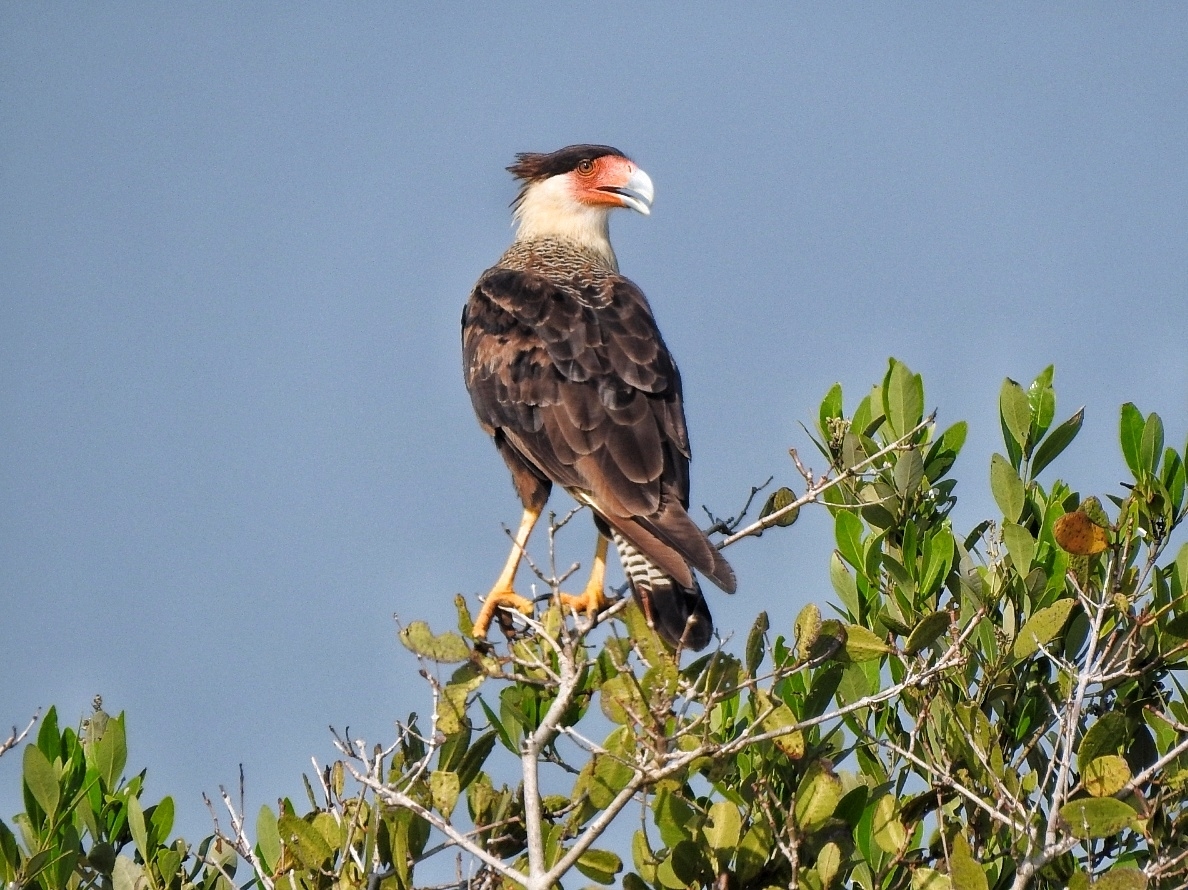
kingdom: Animalia
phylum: Chordata
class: Aves
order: Falconiformes
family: Falconidae
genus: Caracara
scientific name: Caracara plancus
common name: Southern caracara
